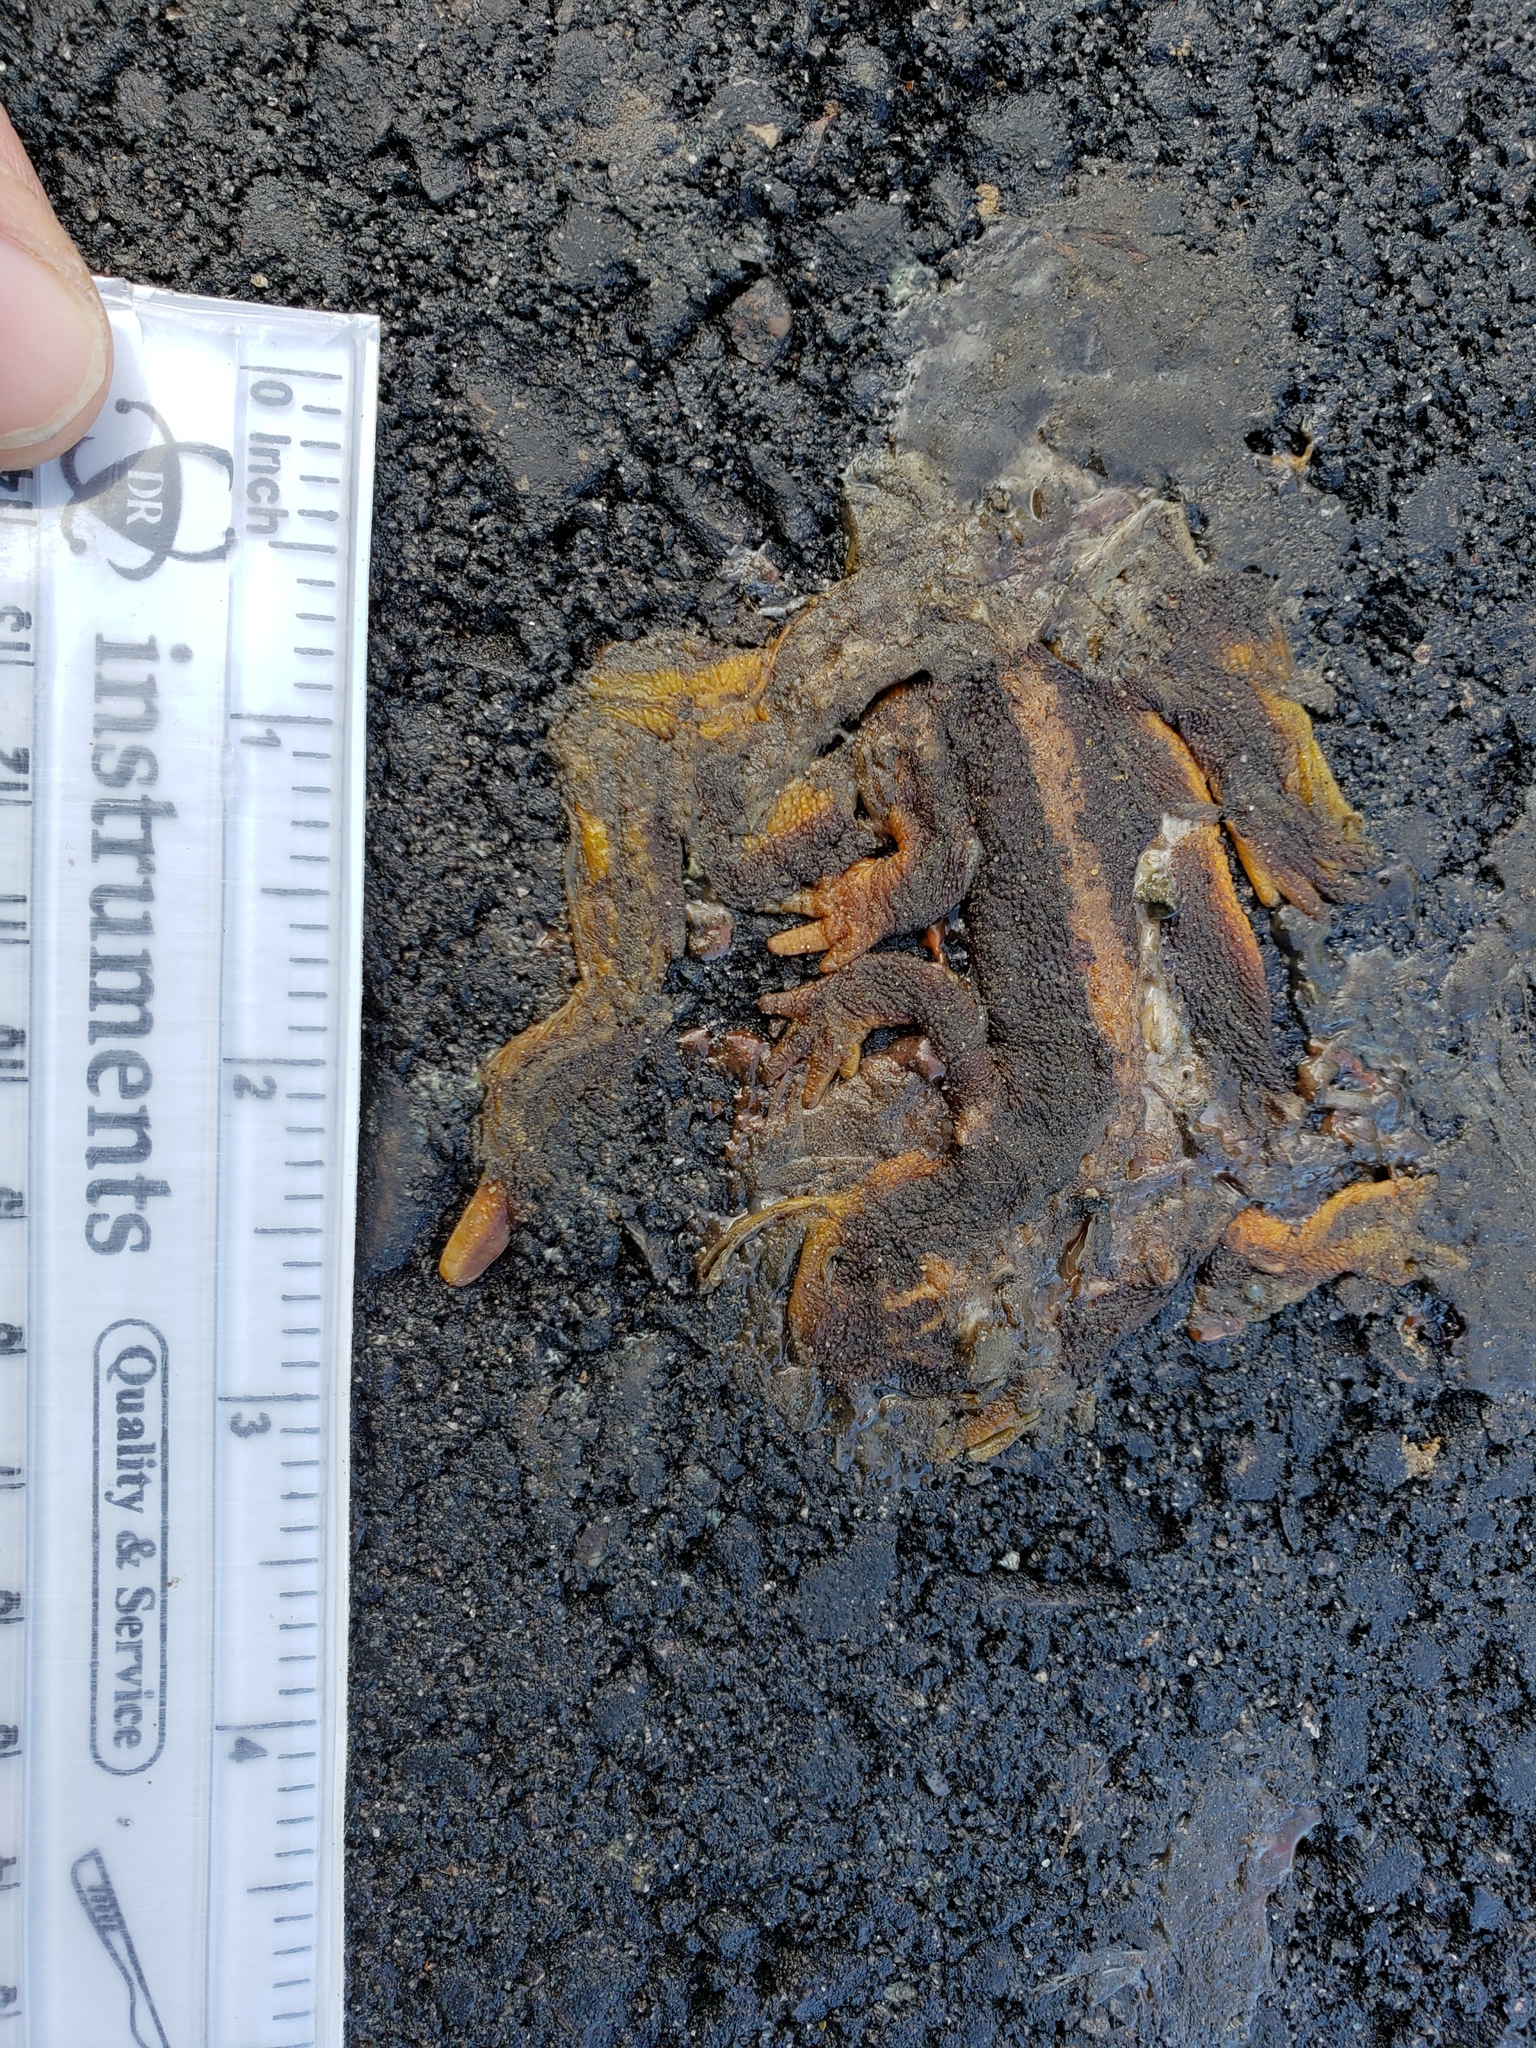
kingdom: Animalia
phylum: Chordata
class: Amphibia
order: Caudata
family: Salamandridae
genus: Taricha
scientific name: Taricha
